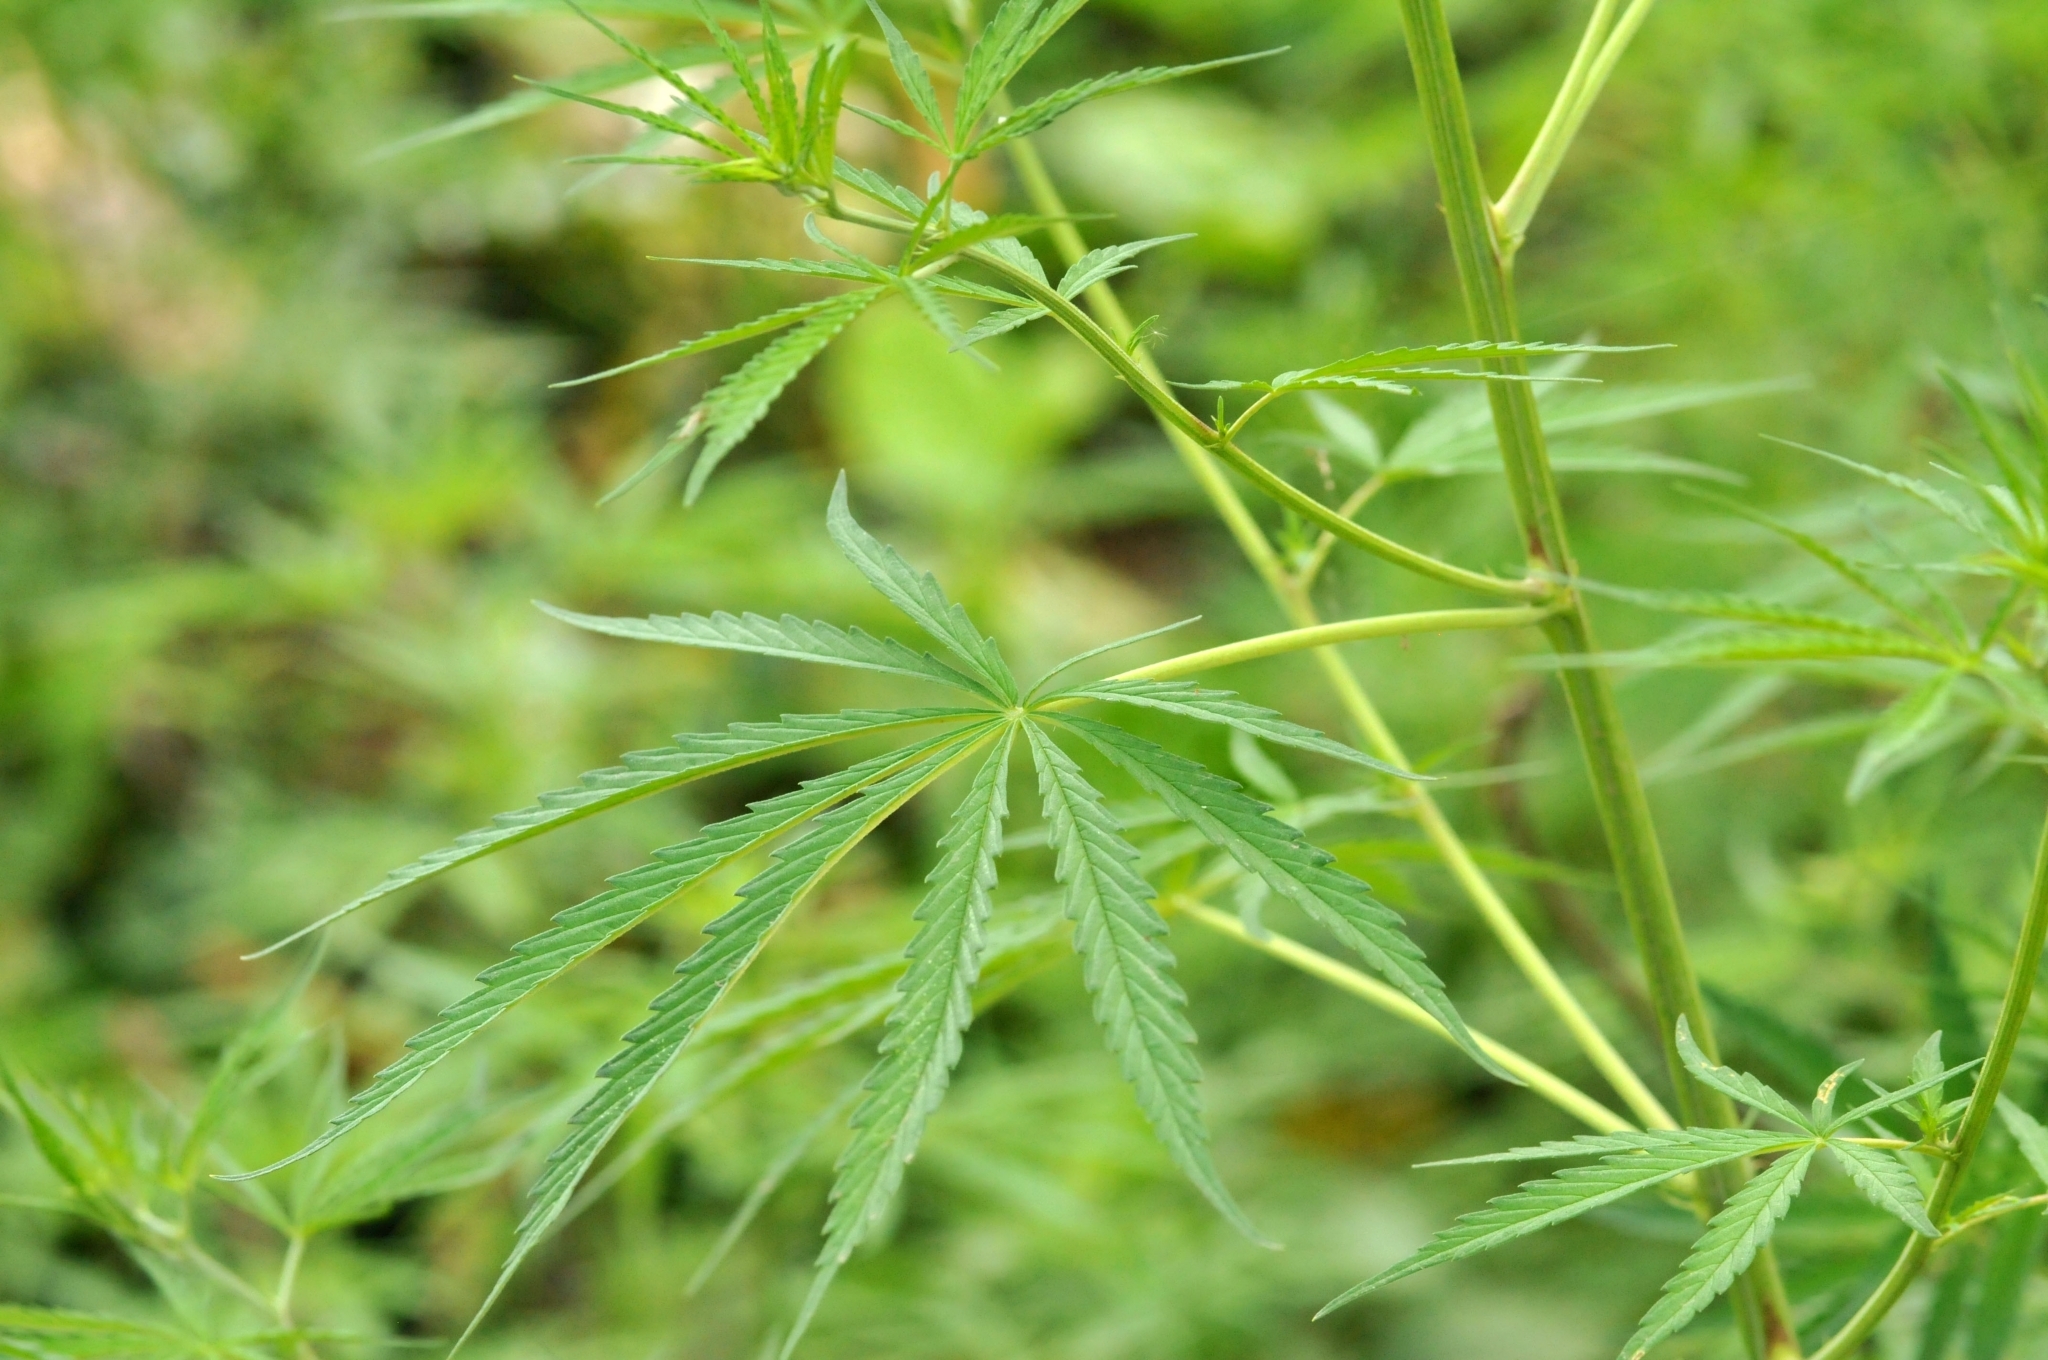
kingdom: Plantae
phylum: Tracheophyta
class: Magnoliopsida
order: Rosales
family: Cannabaceae
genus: Cannabis
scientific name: Cannabis sativa
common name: Hemp
